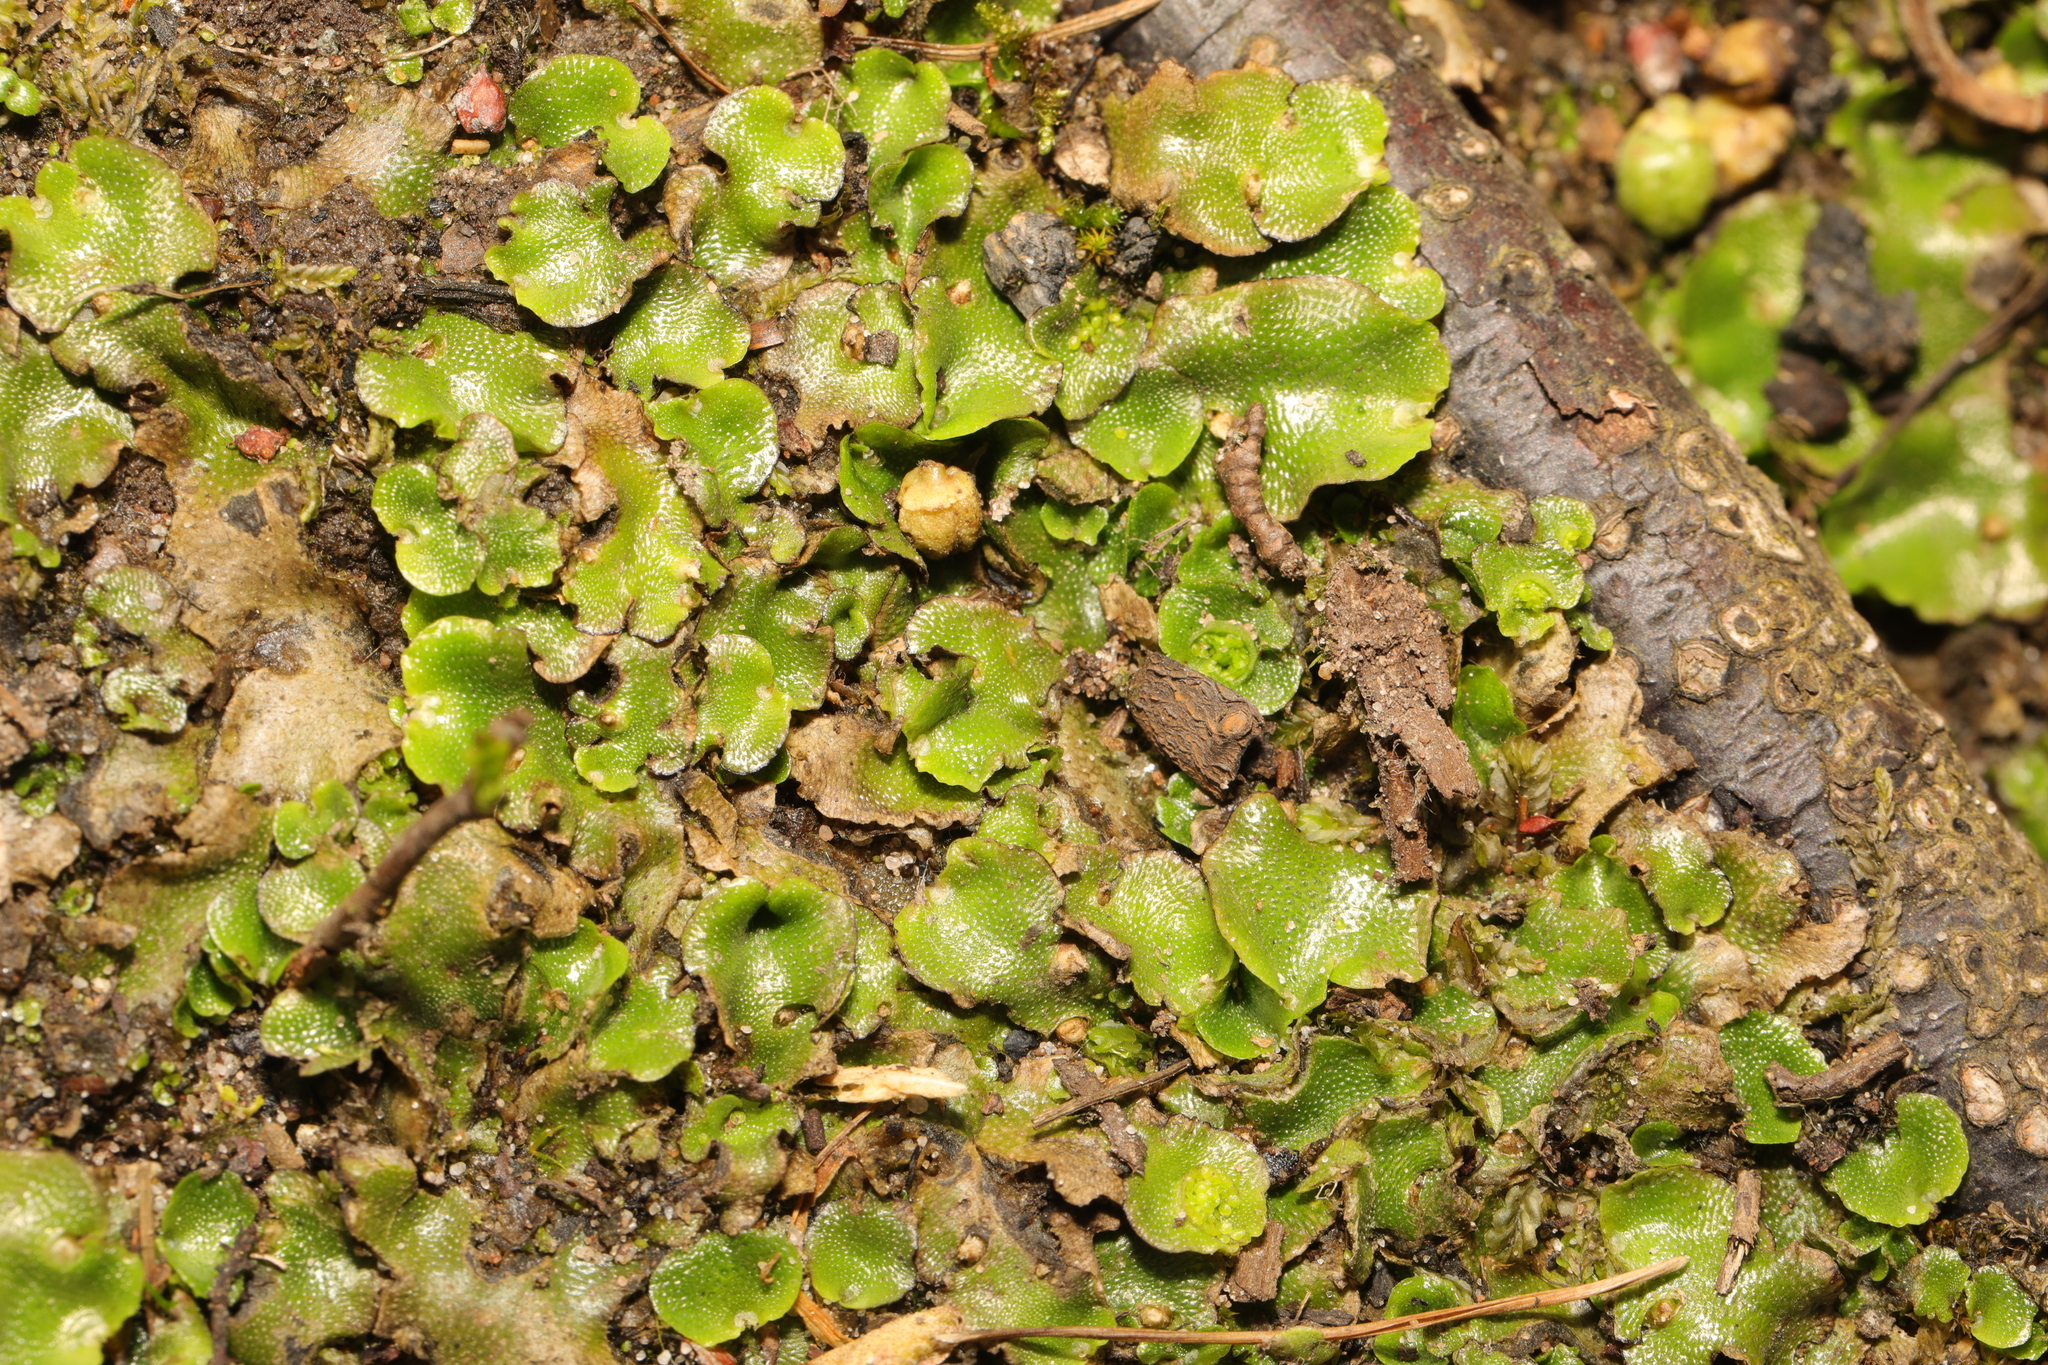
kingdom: Plantae
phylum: Marchantiophyta
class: Marchantiopsida
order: Lunulariales
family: Lunulariaceae
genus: Lunularia
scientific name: Lunularia cruciata
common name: Crescent-cup liverwort
